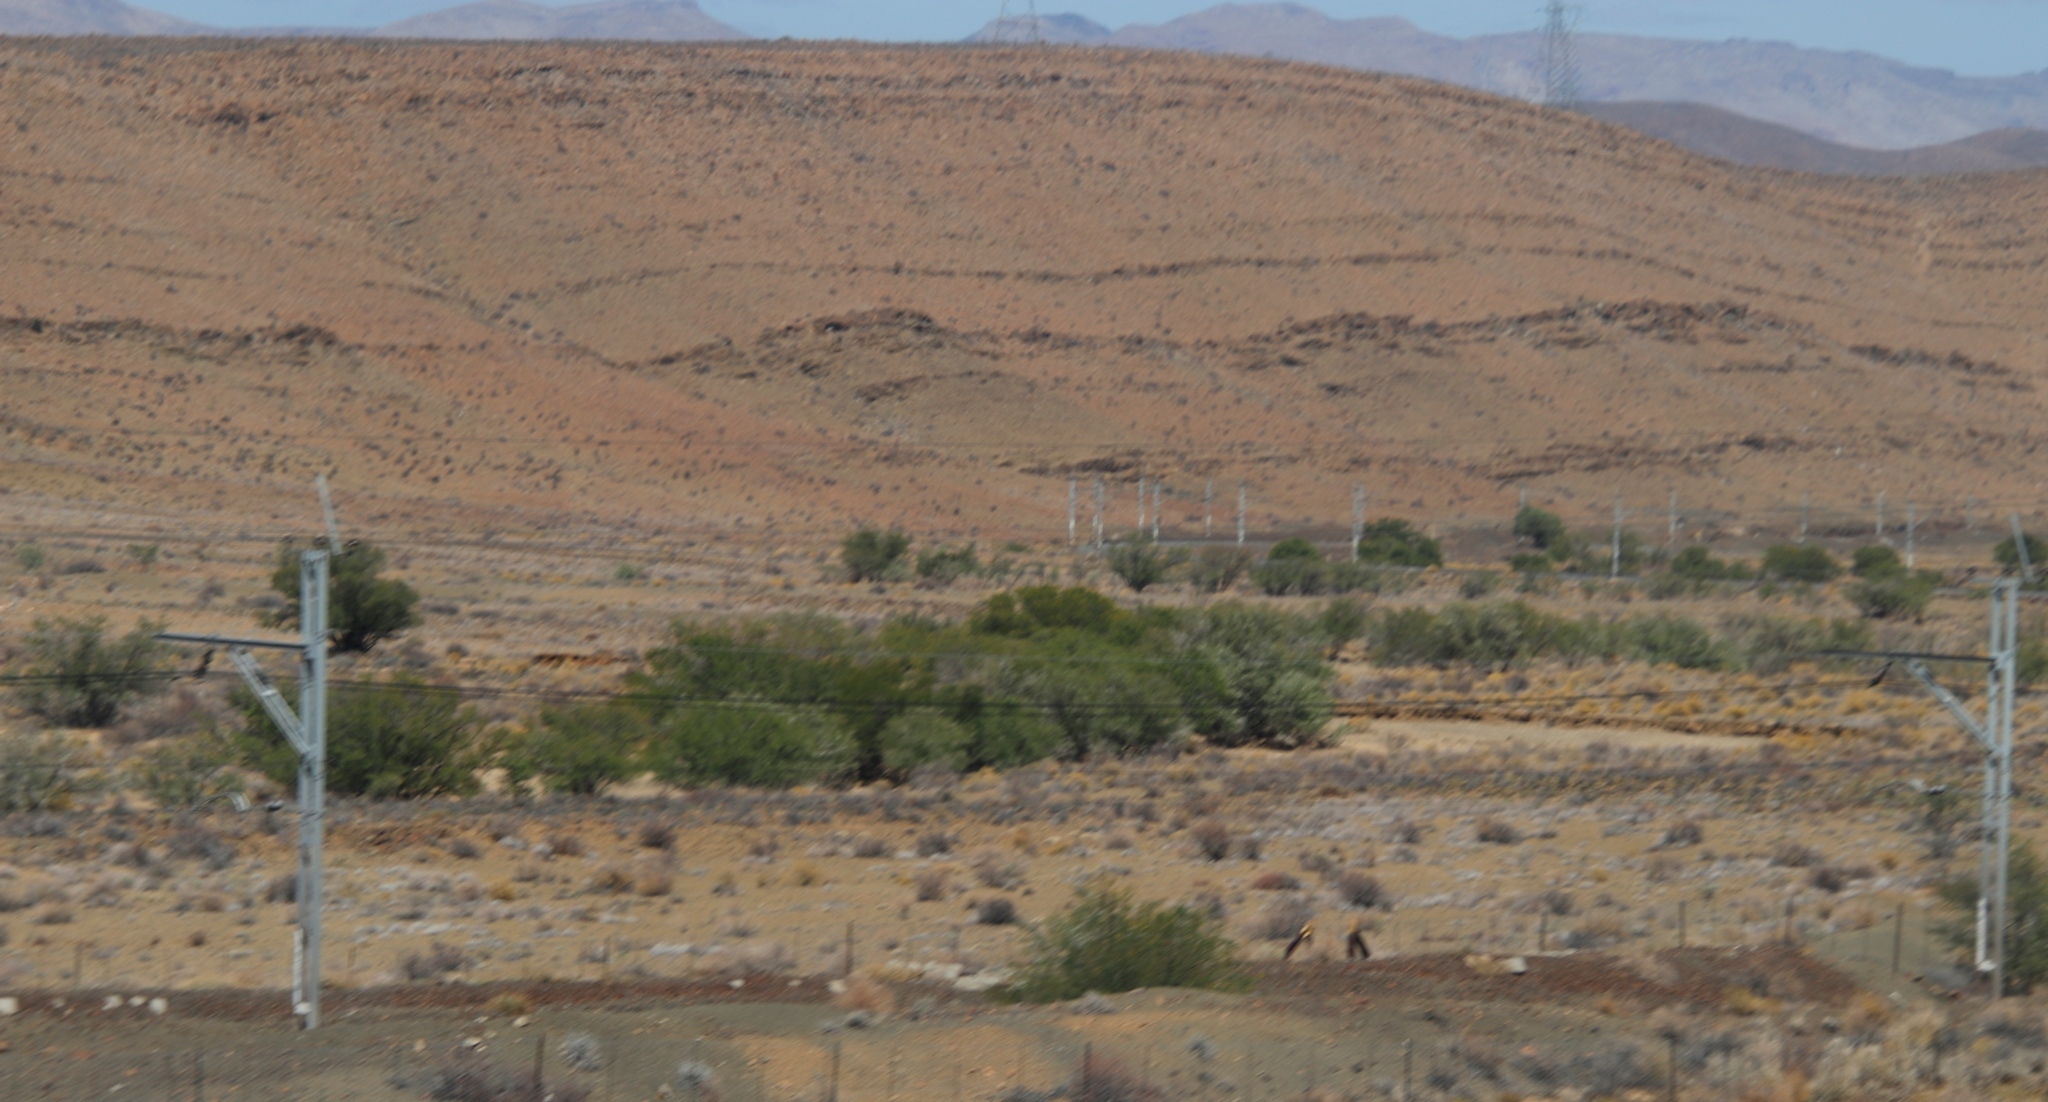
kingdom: Plantae
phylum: Tracheophyta
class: Magnoliopsida
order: Fabales
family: Fabaceae
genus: Vachellia
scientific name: Vachellia karroo
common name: Sweet thorn
